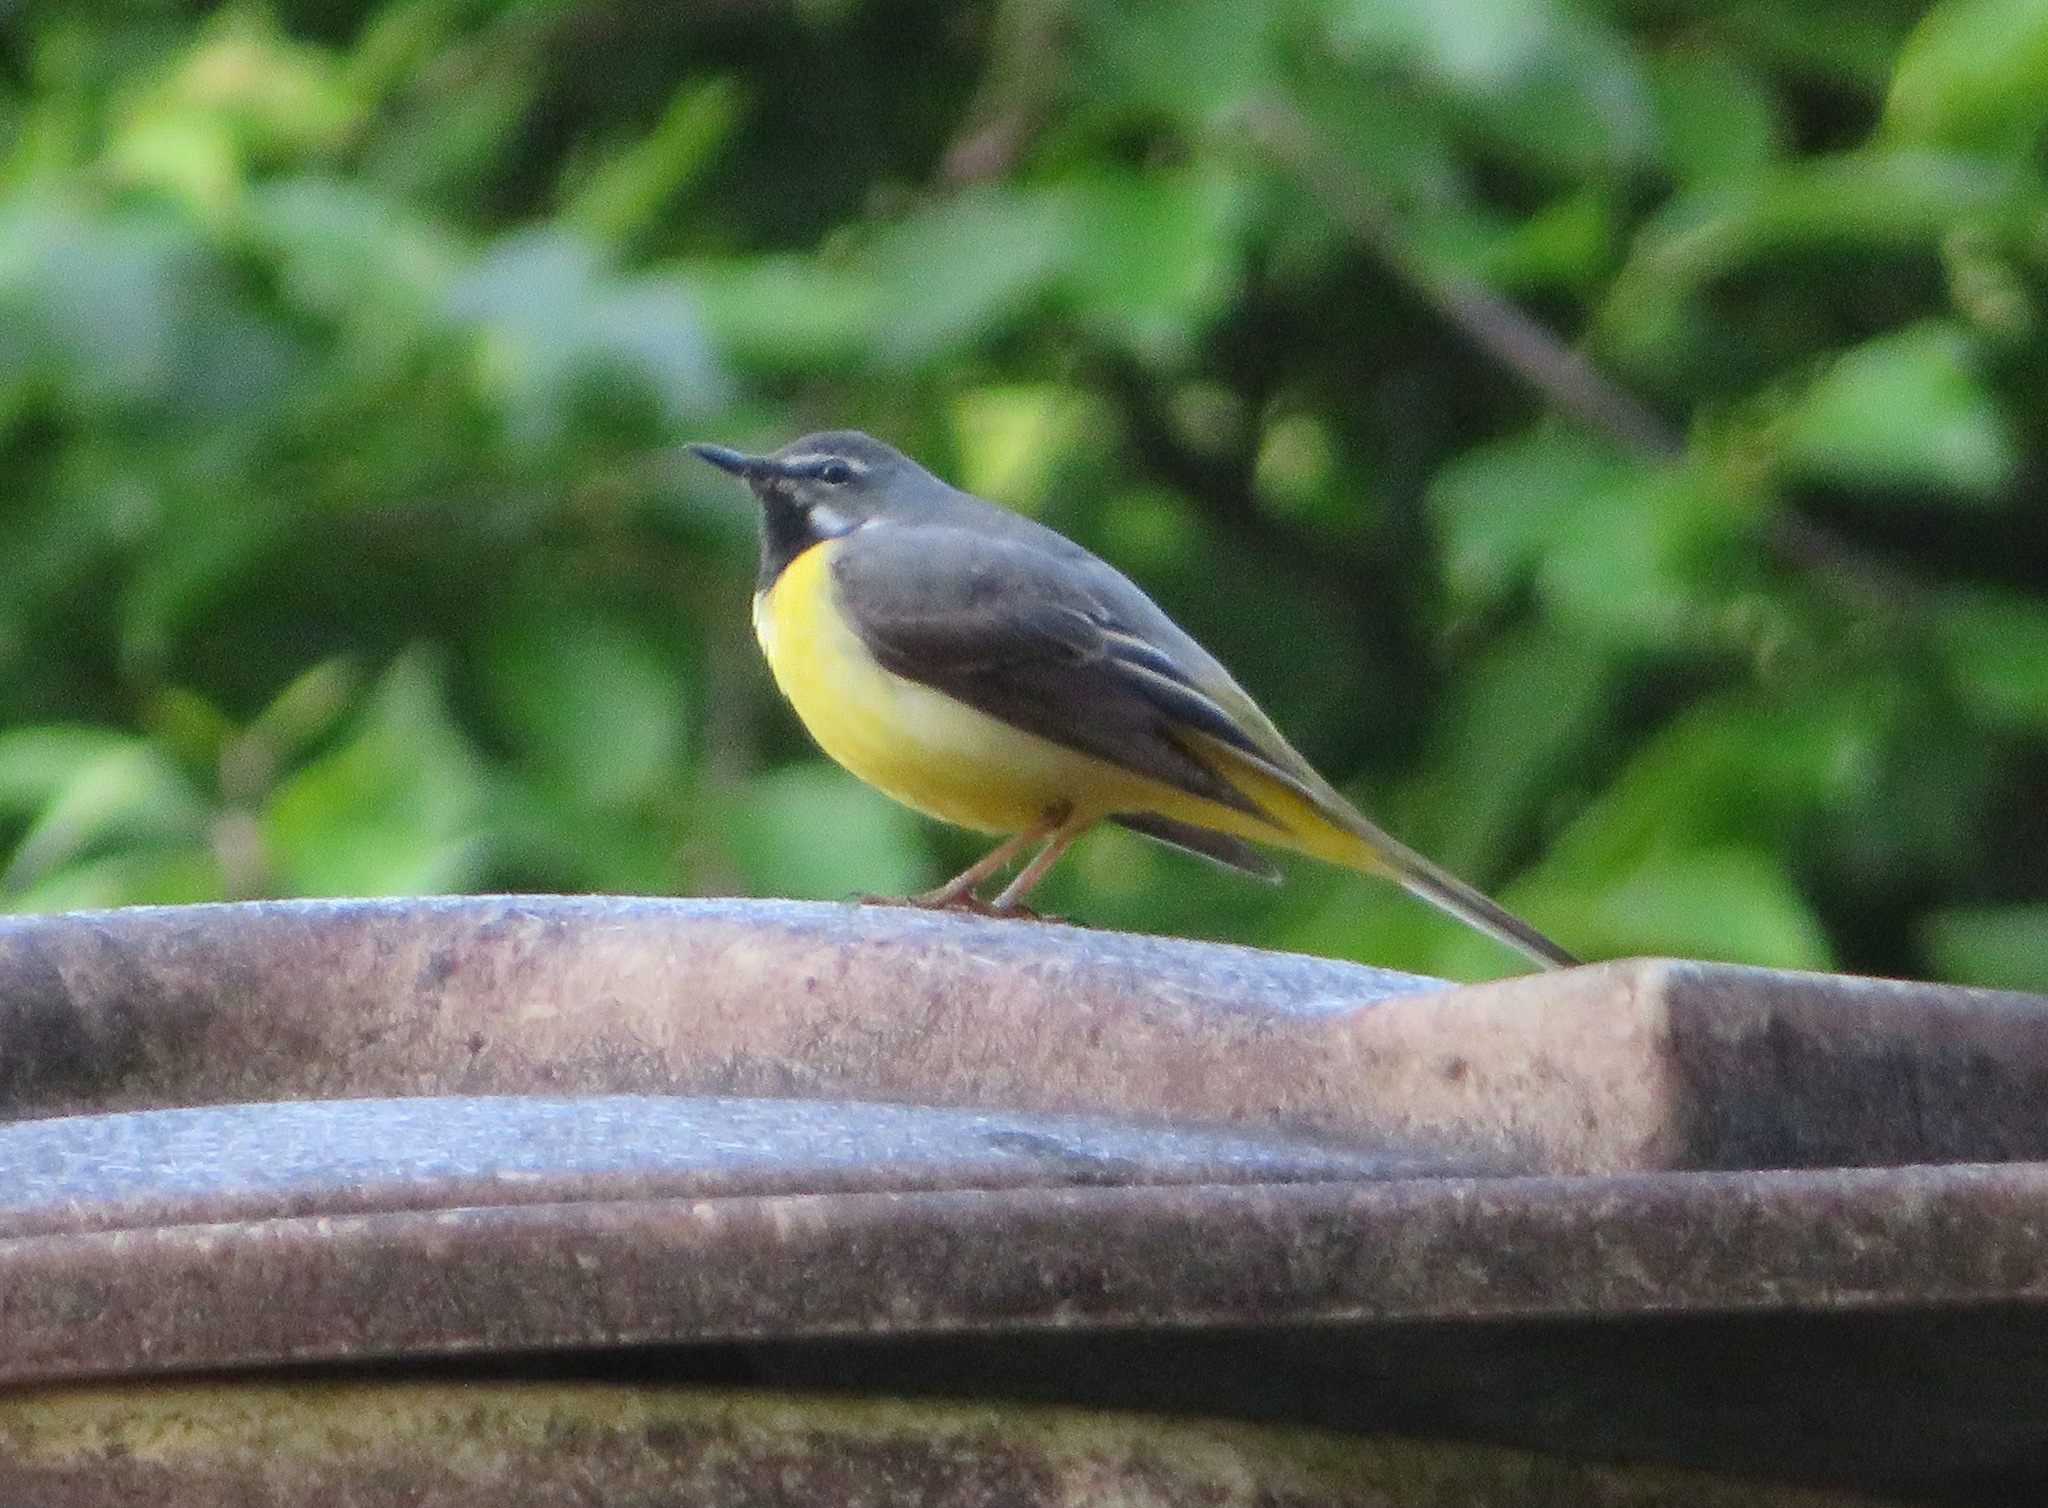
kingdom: Animalia
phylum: Chordata
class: Aves
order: Passeriformes
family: Motacillidae
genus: Motacilla
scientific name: Motacilla cinerea
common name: Grey wagtail
